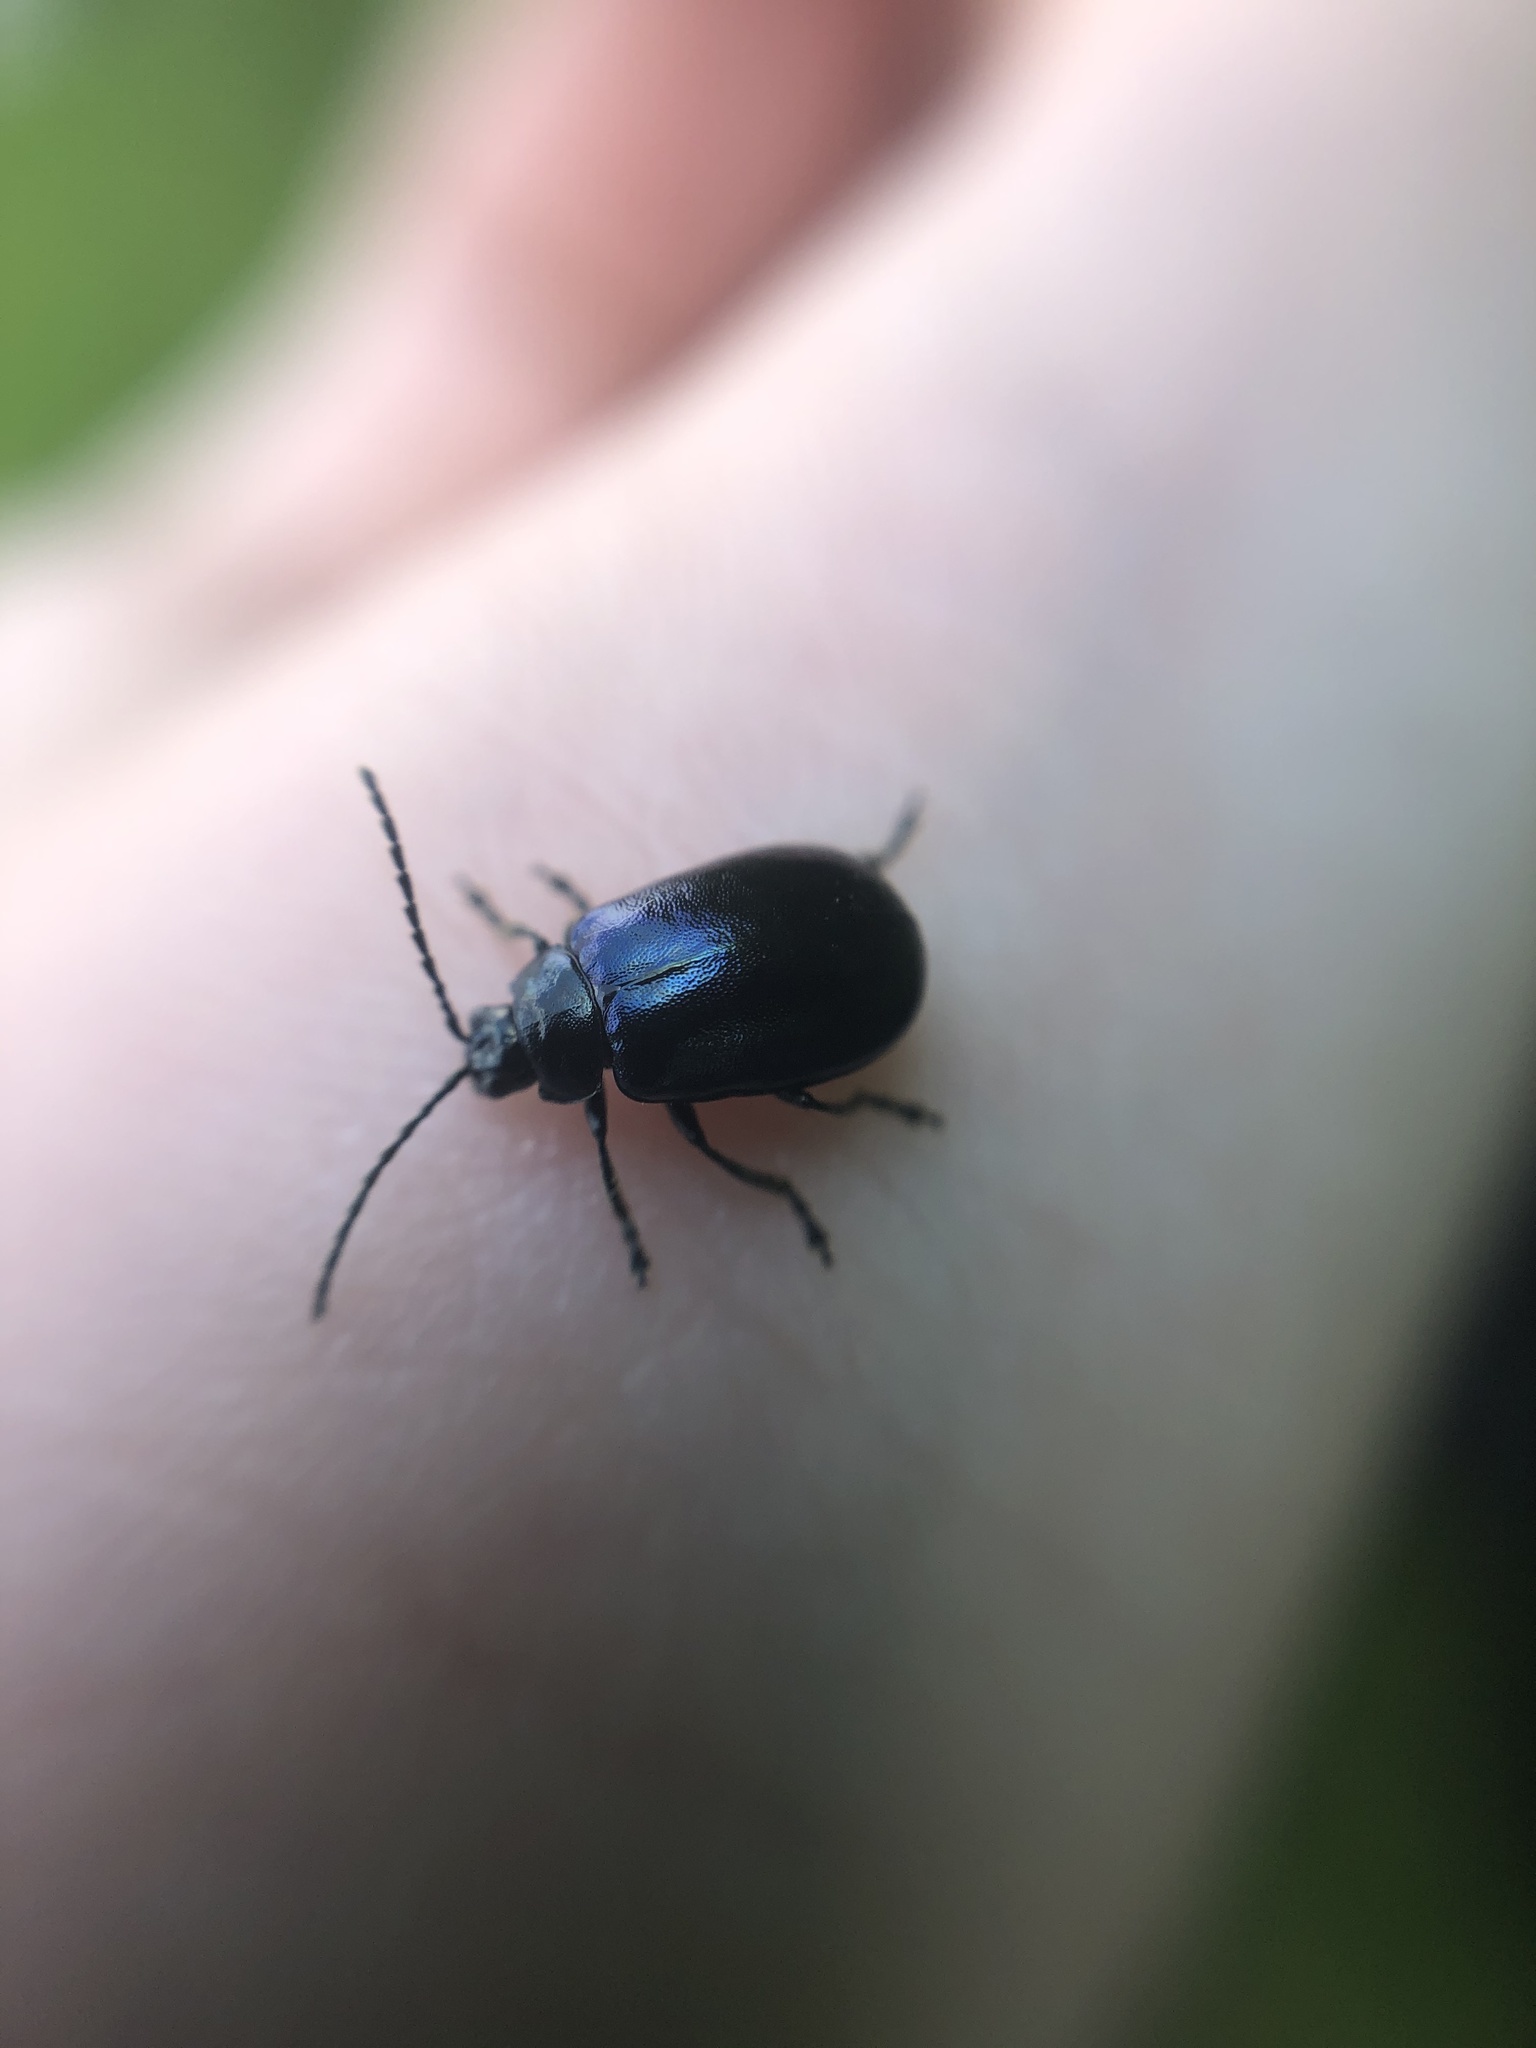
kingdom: Animalia
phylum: Arthropoda
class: Insecta
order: Coleoptera
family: Chrysomelidae
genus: Agelastica
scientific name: Agelastica alni
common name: Alder leaf beetle
